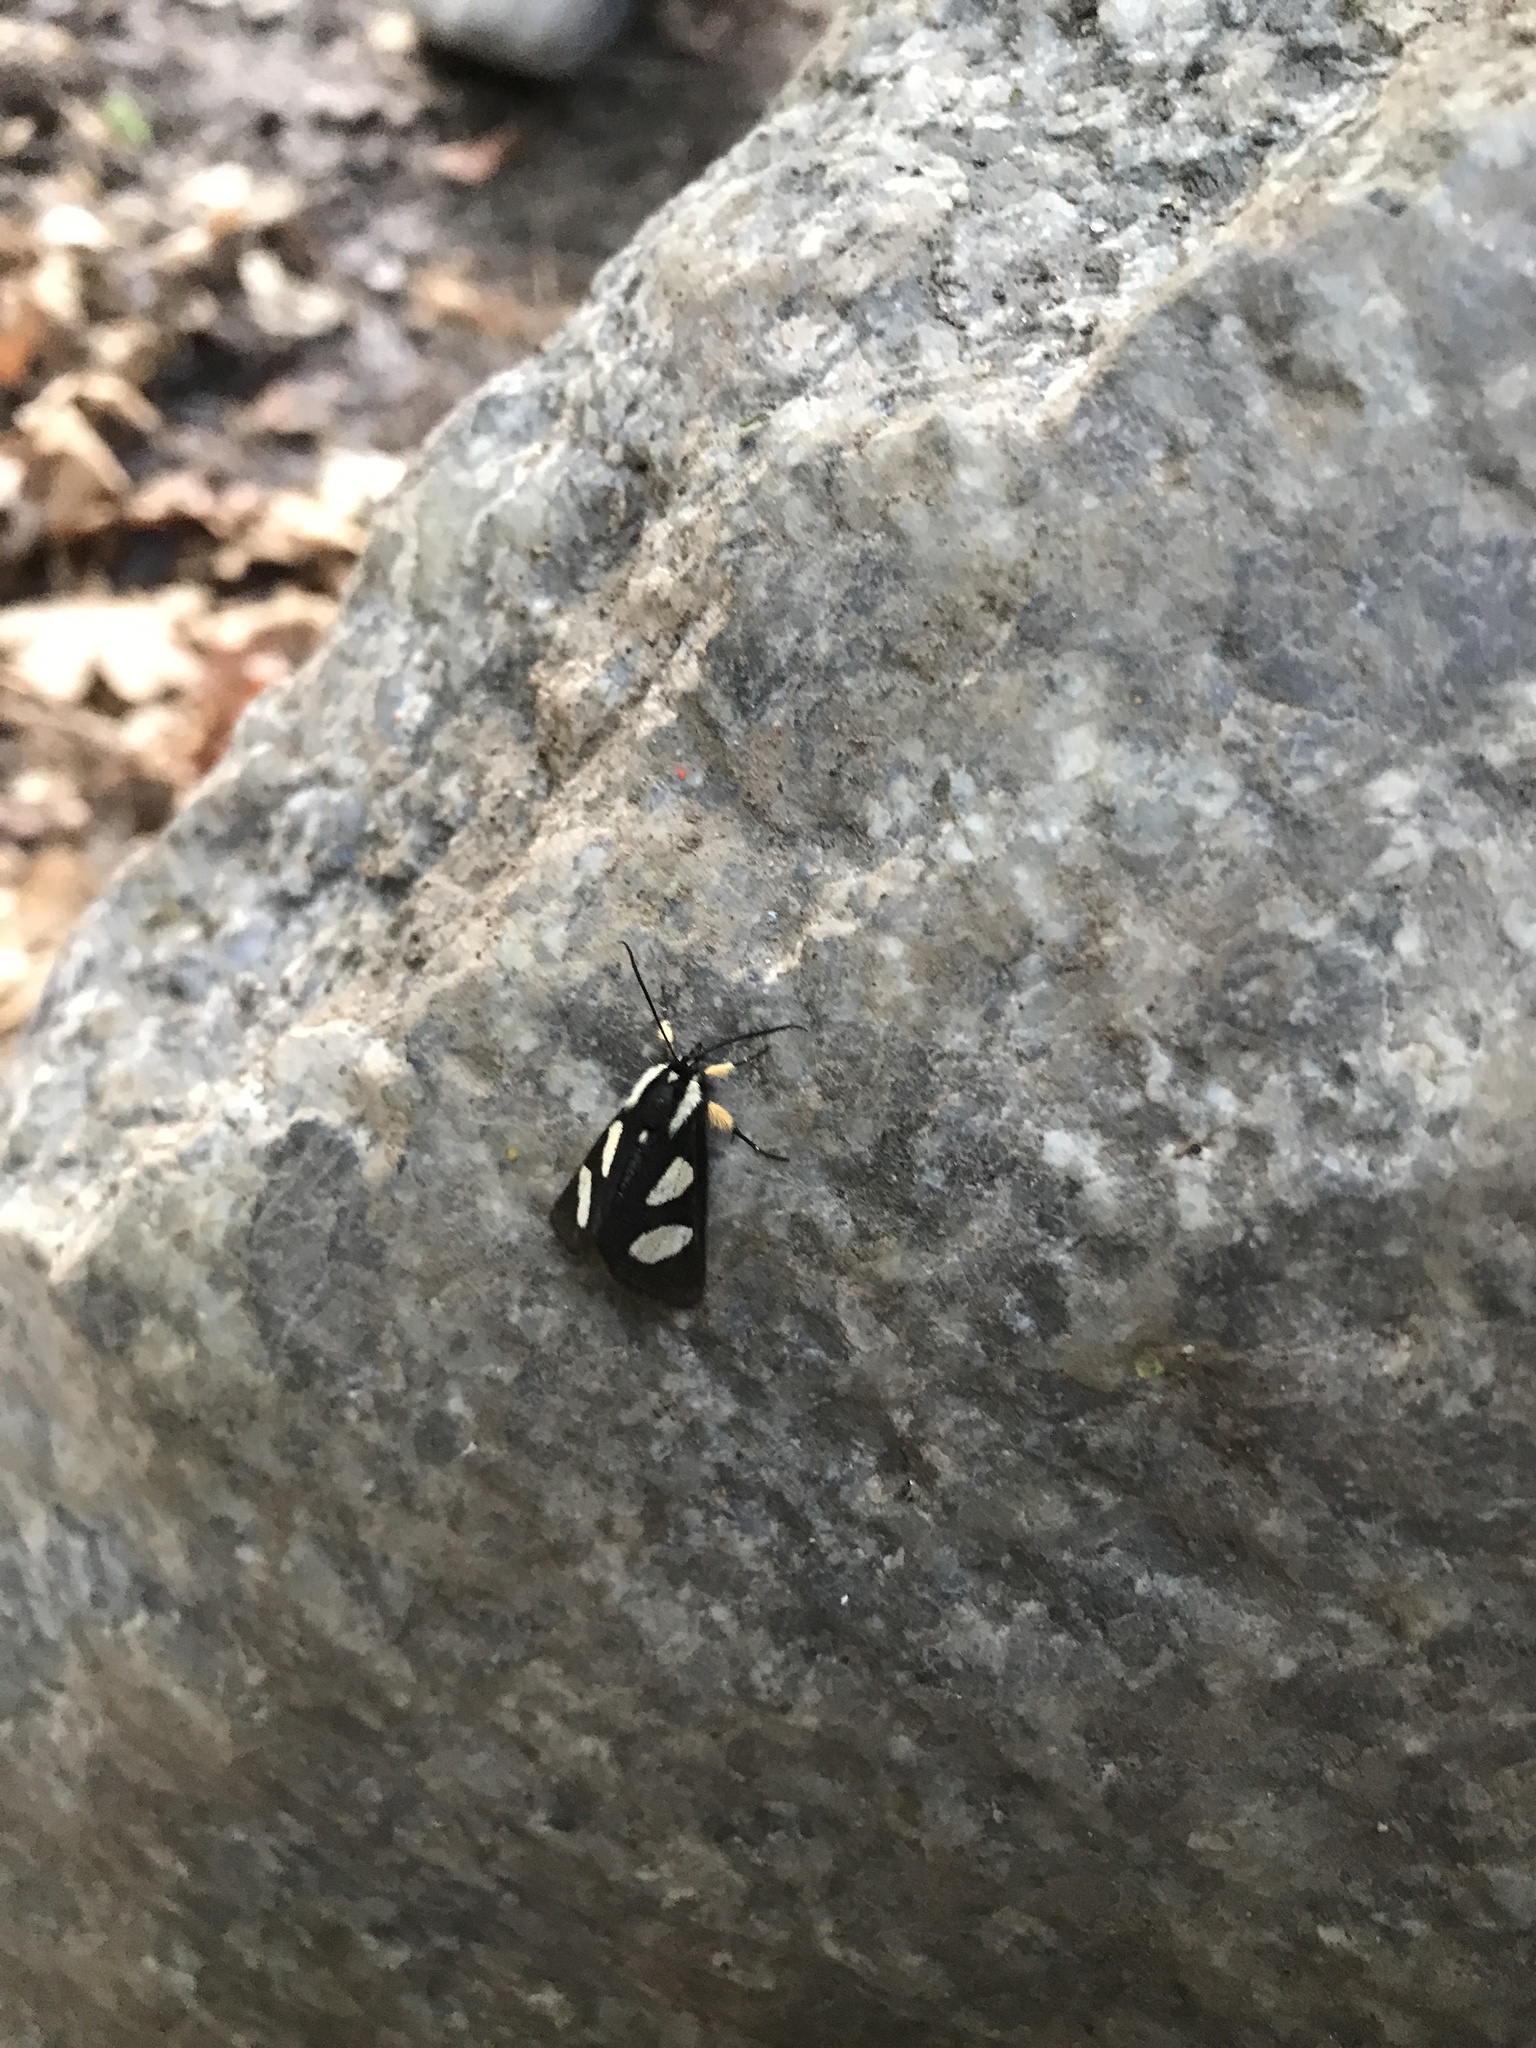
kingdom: Animalia
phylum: Arthropoda
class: Insecta
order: Lepidoptera
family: Noctuidae
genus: Alypia
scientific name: Alypia octomaculata
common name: Eight-spotted forester
